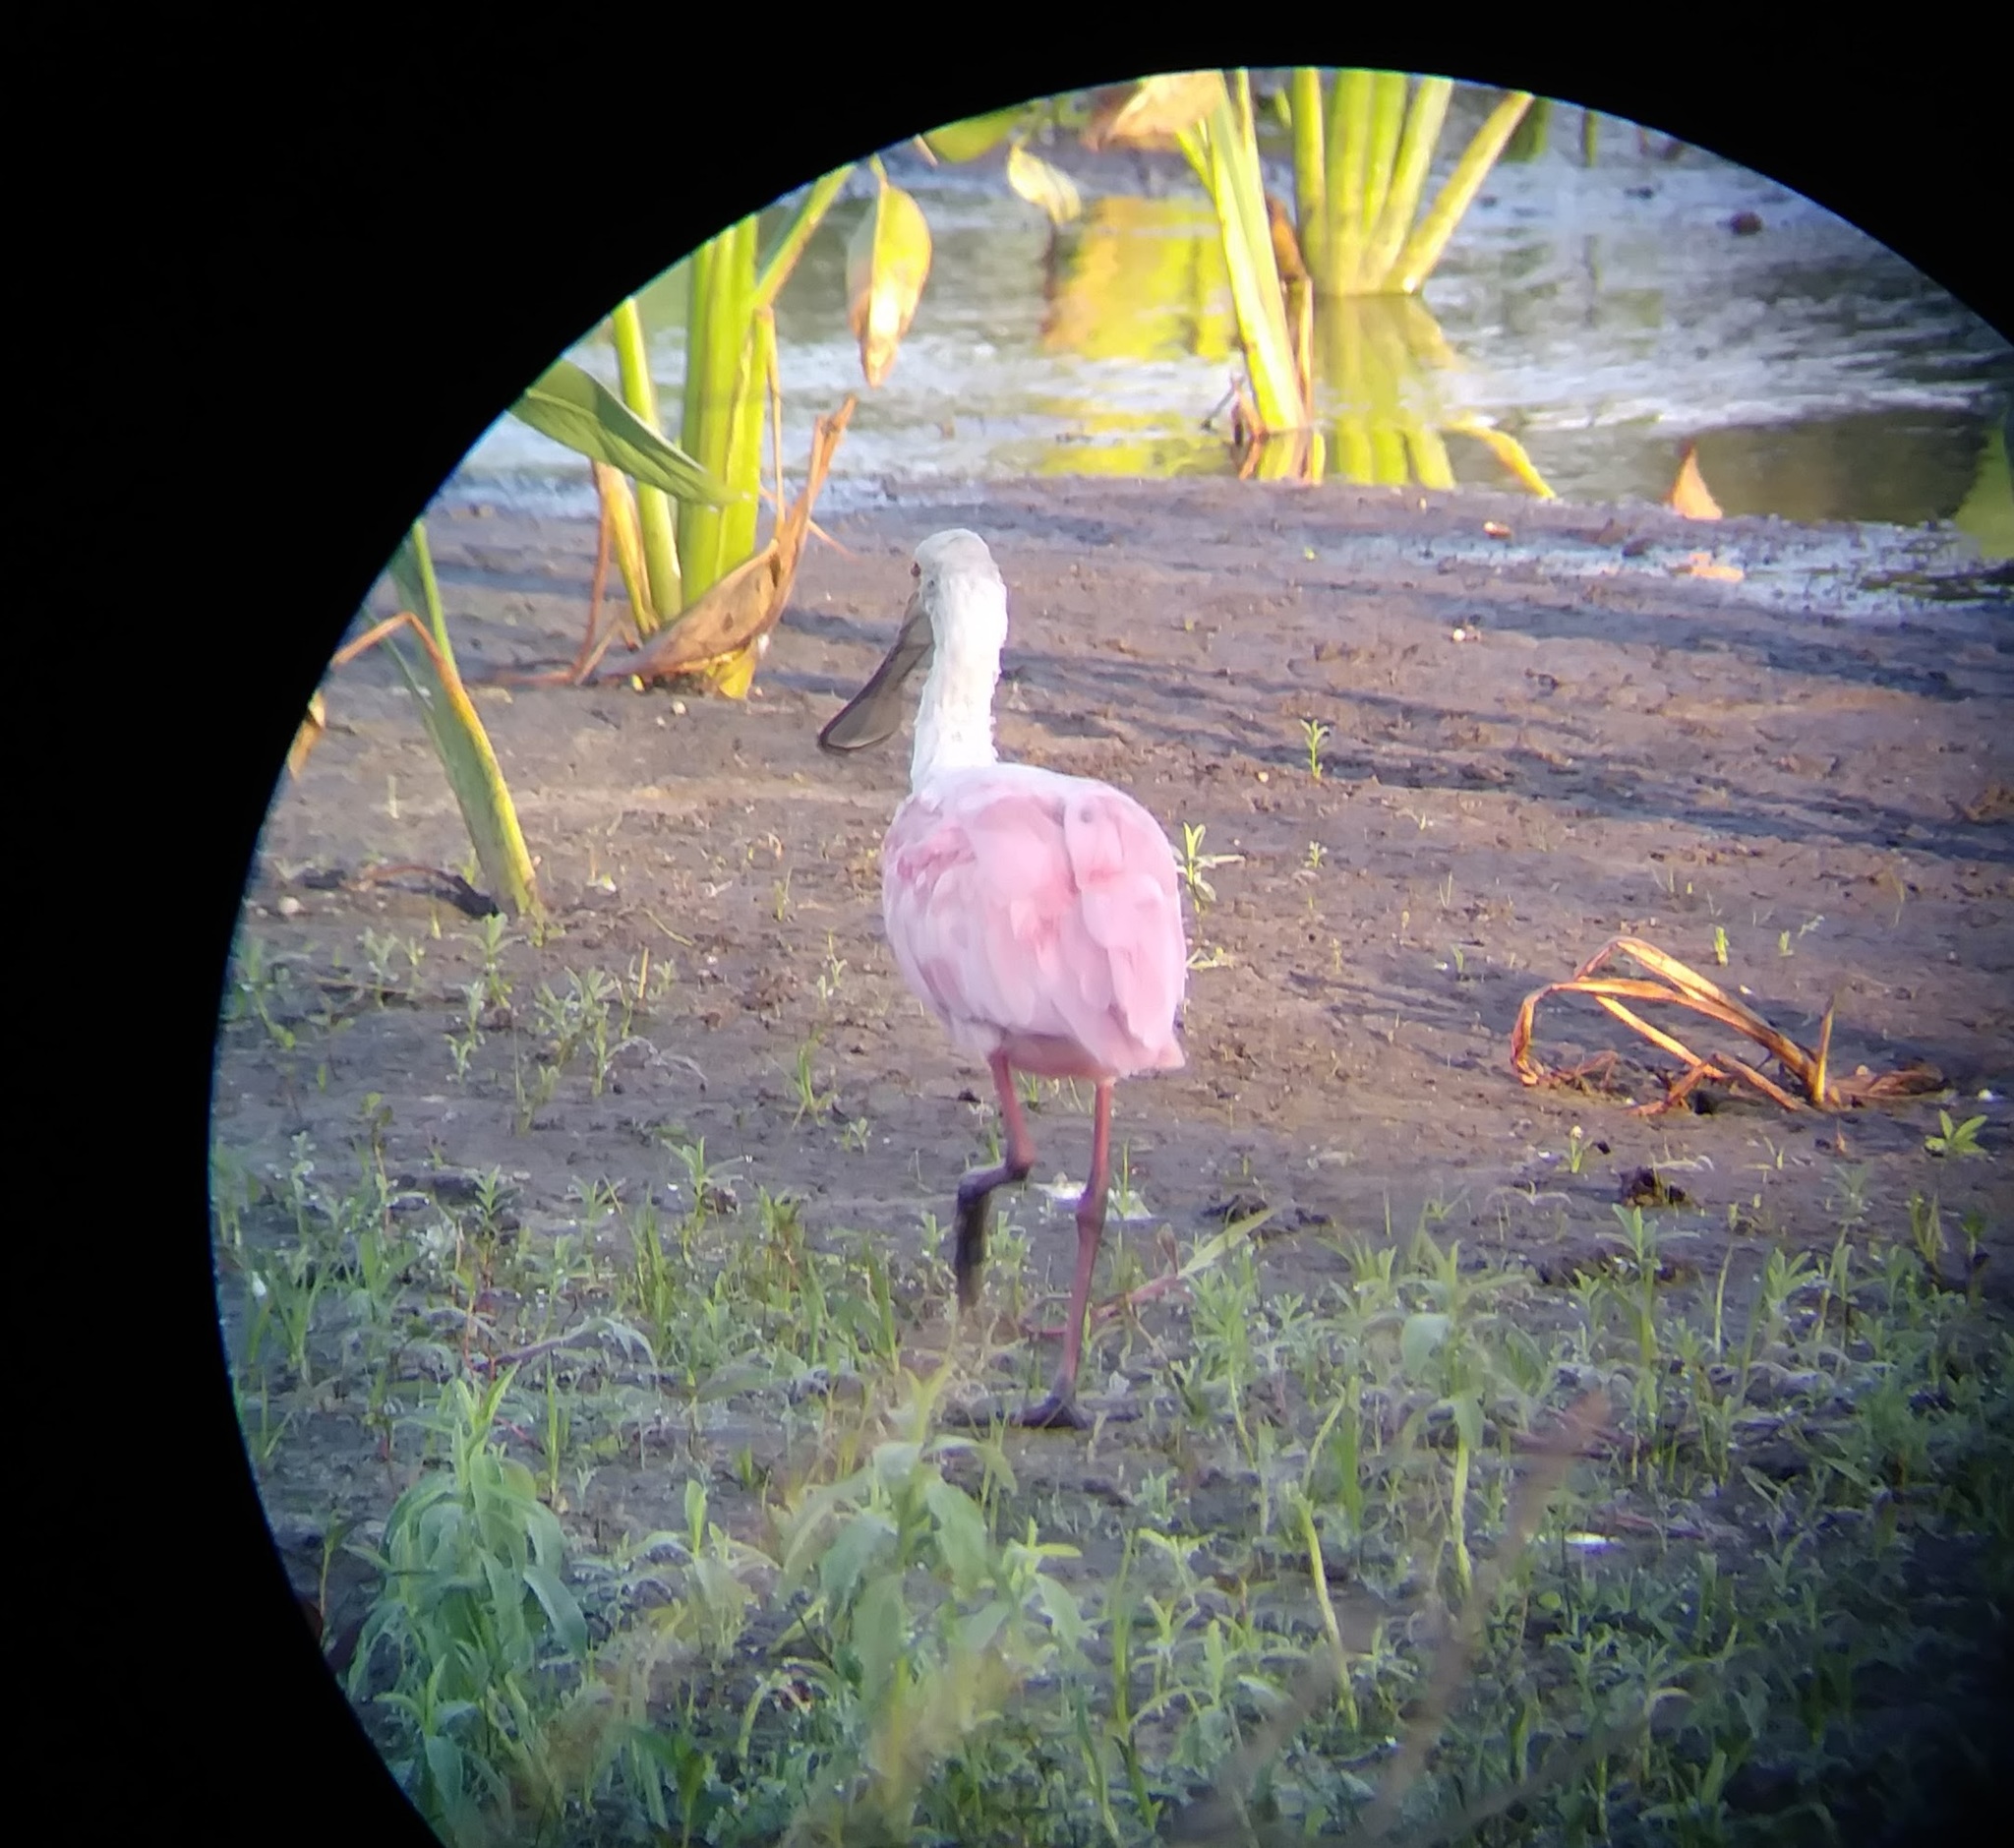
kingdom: Animalia
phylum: Chordata
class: Aves
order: Pelecaniformes
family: Threskiornithidae
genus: Platalea
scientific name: Platalea ajaja
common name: Roseate spoonbill
